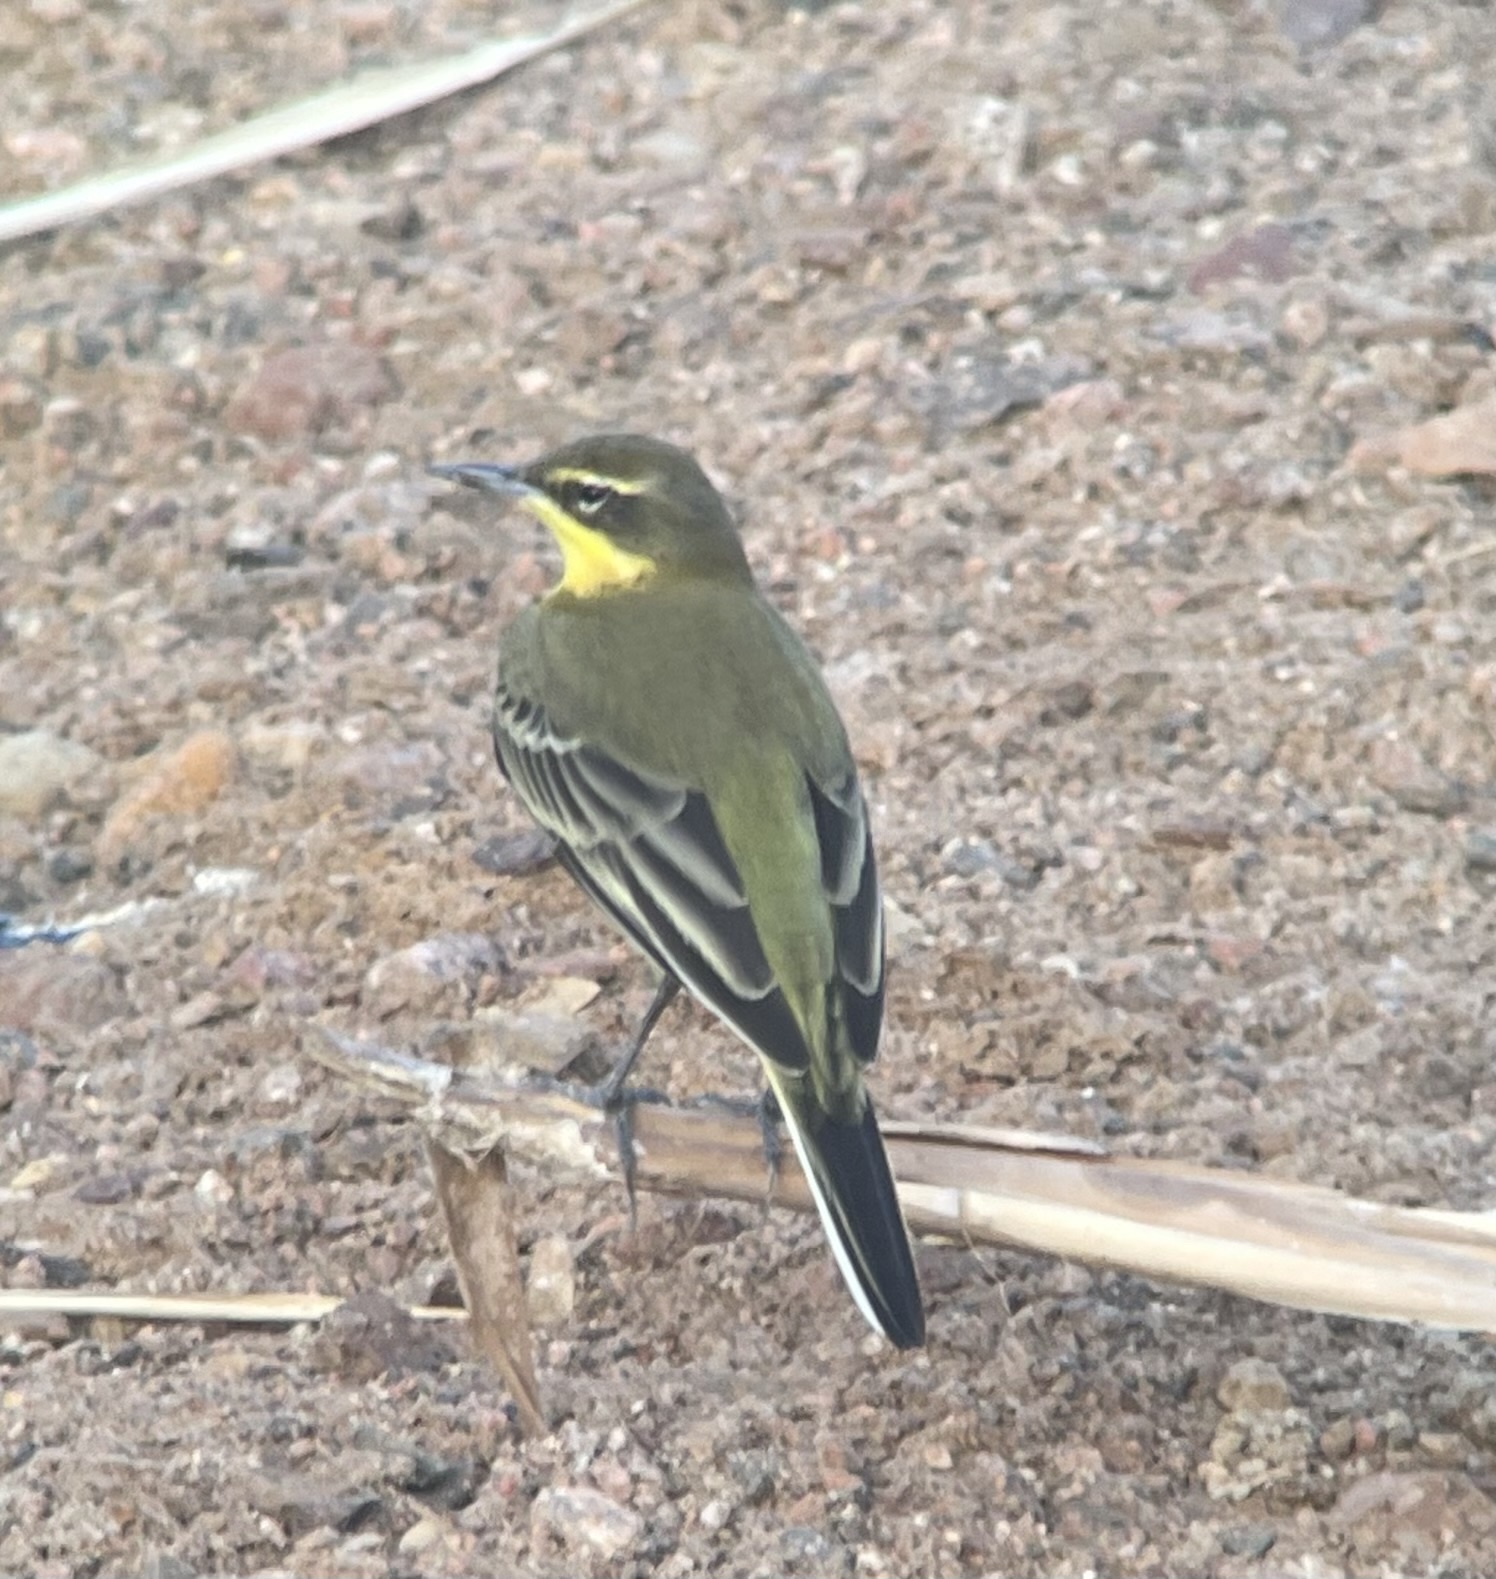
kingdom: Animalia
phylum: Chordata
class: Aves
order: Passeriformes
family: Motacillidae
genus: Motacilla
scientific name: Motacilla flava
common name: Western yellow wagtail
